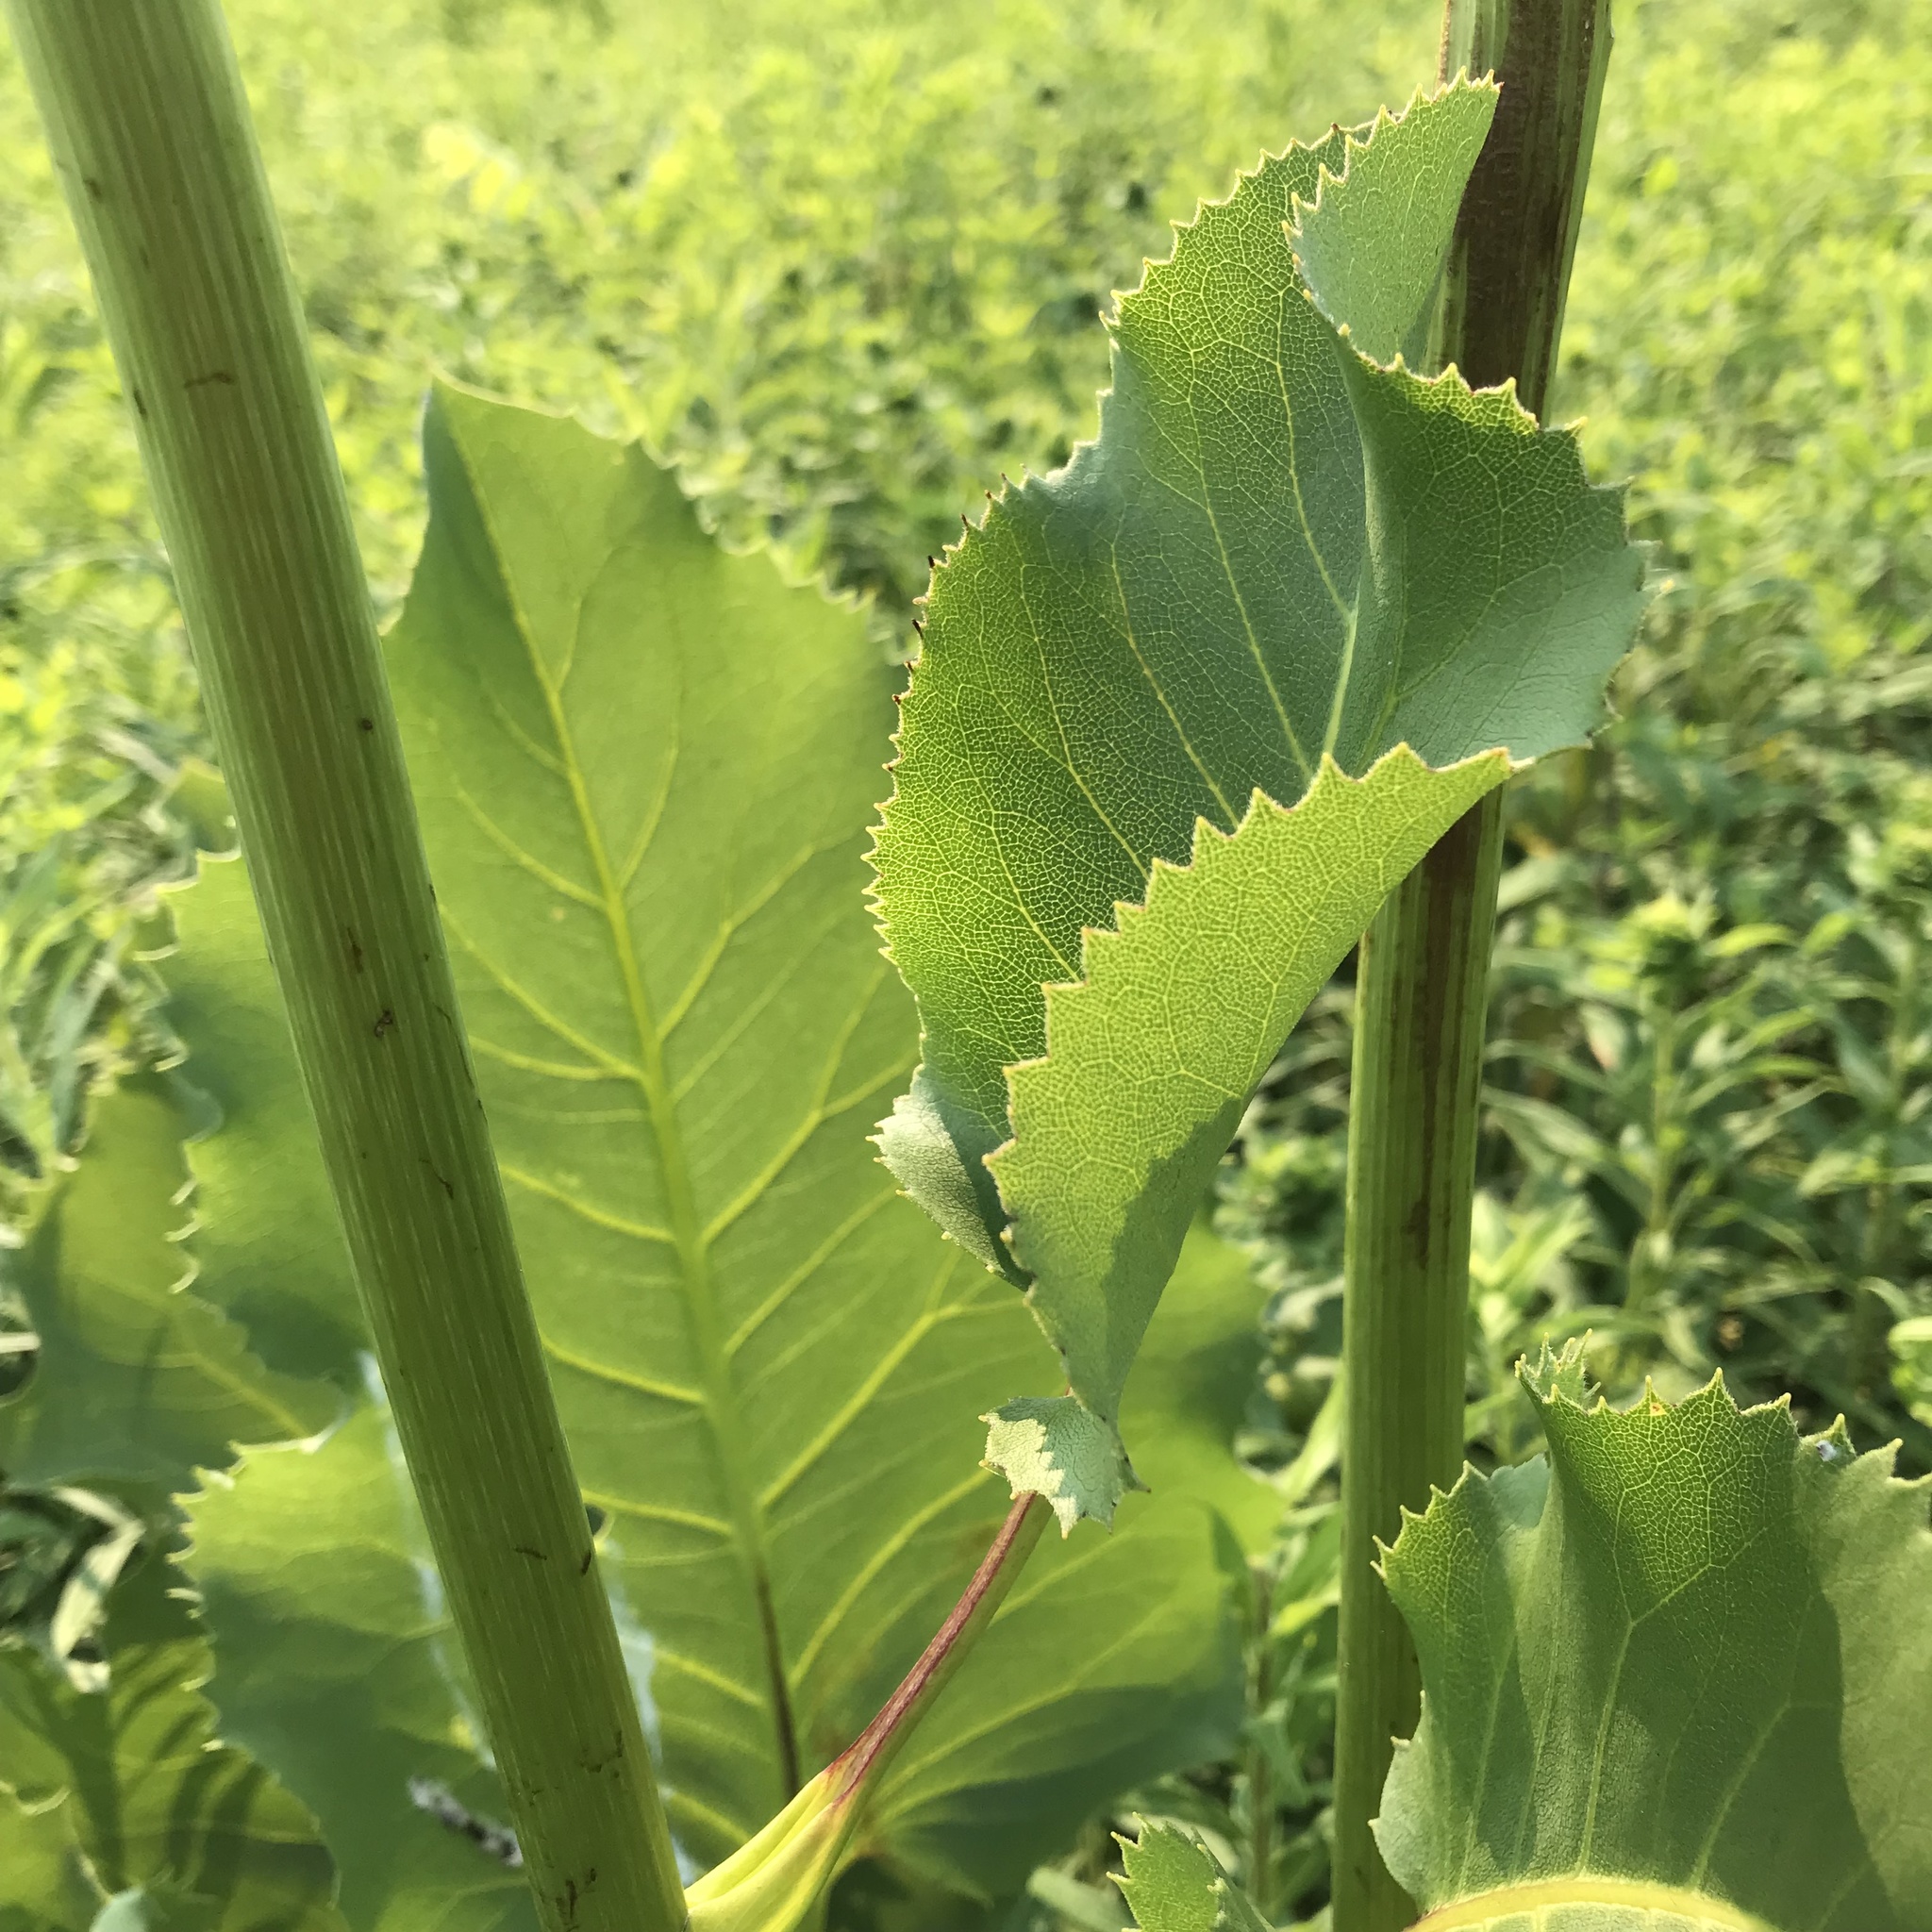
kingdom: Plantae
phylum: Tracheophyta
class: Magnoliopsida
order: Asterales
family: Asteraceae
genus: Silphium
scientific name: Silphium terebinthinaceum
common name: Basal-leaf rosinweed
